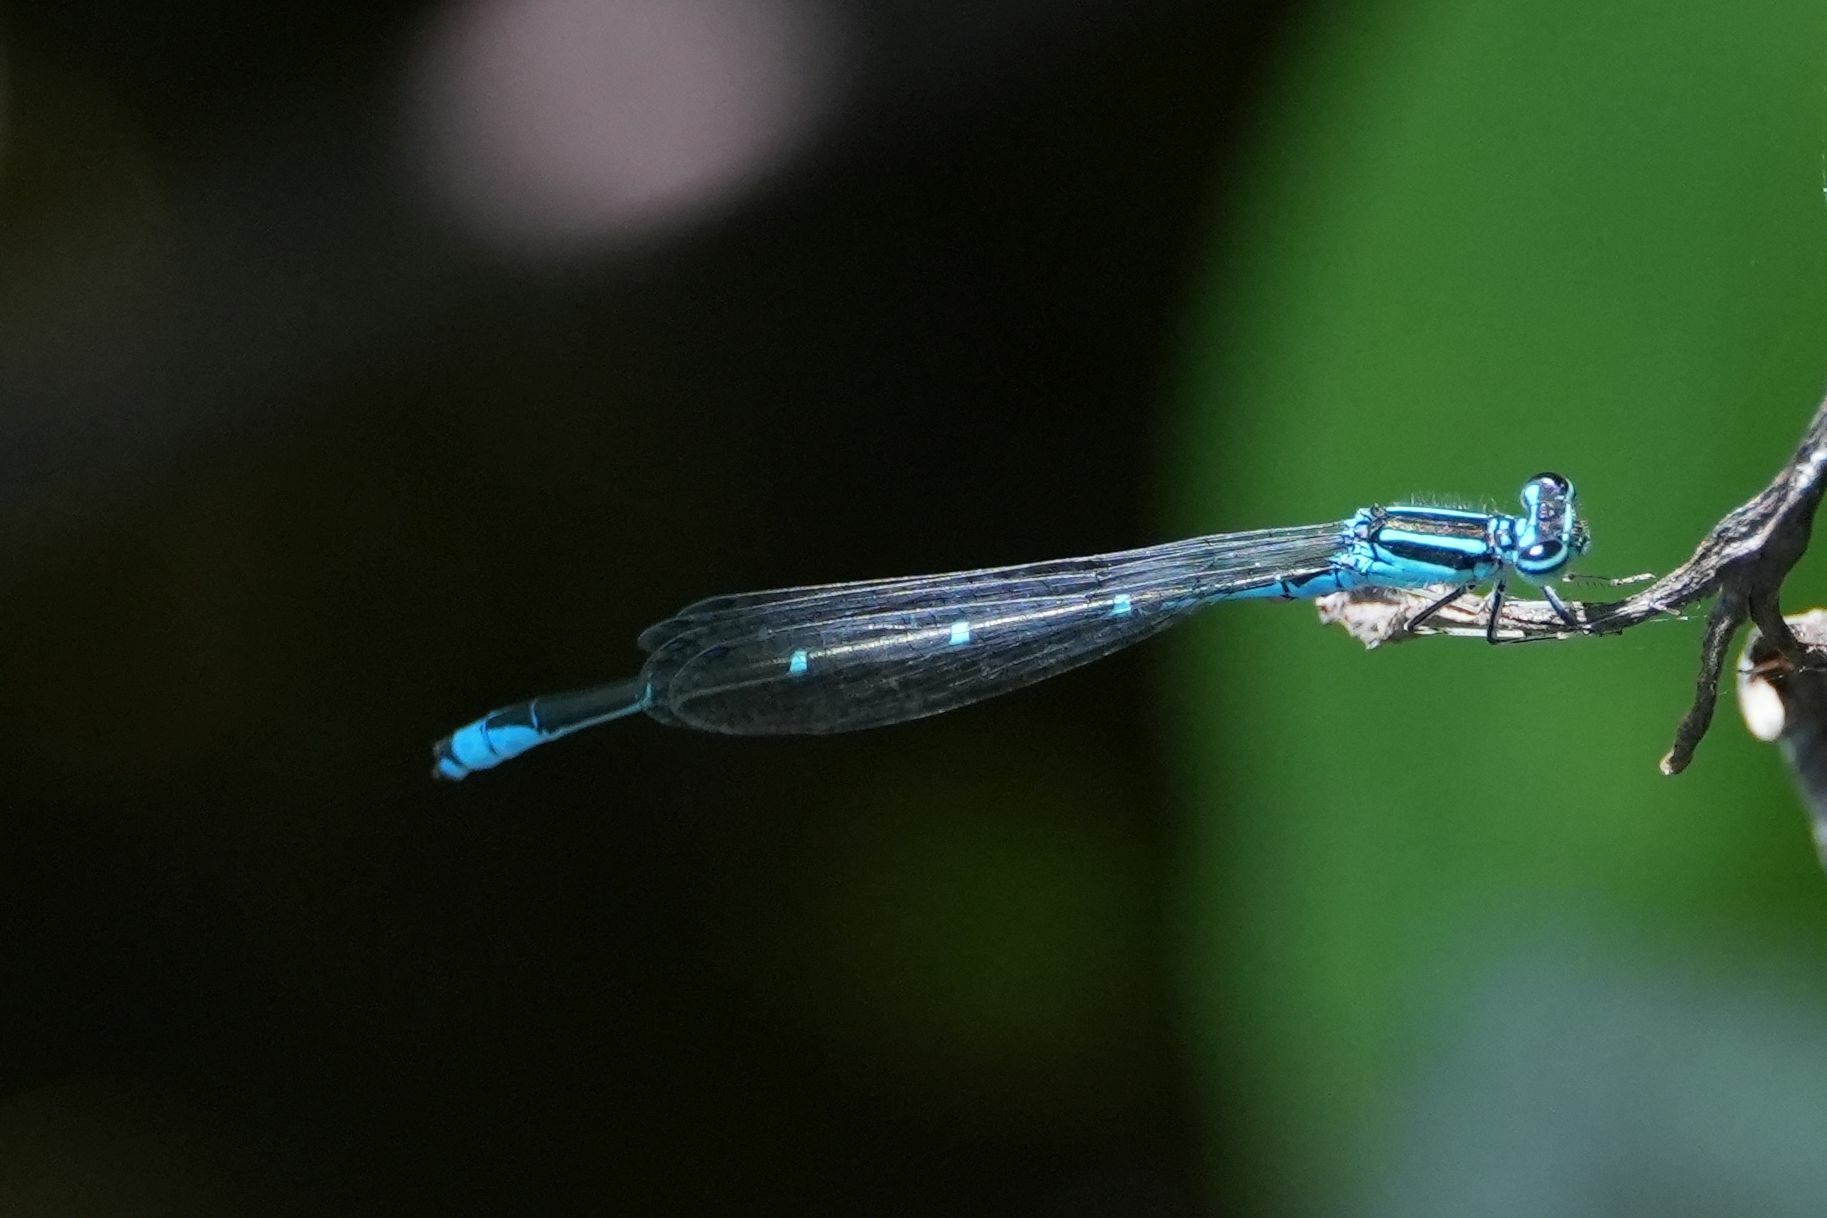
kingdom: Animalia
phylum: Arthropoda
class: Insecta
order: Odonata
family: Coenagrionidae
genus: Enallagma
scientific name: Enallagma exsulans
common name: Stream bluet
